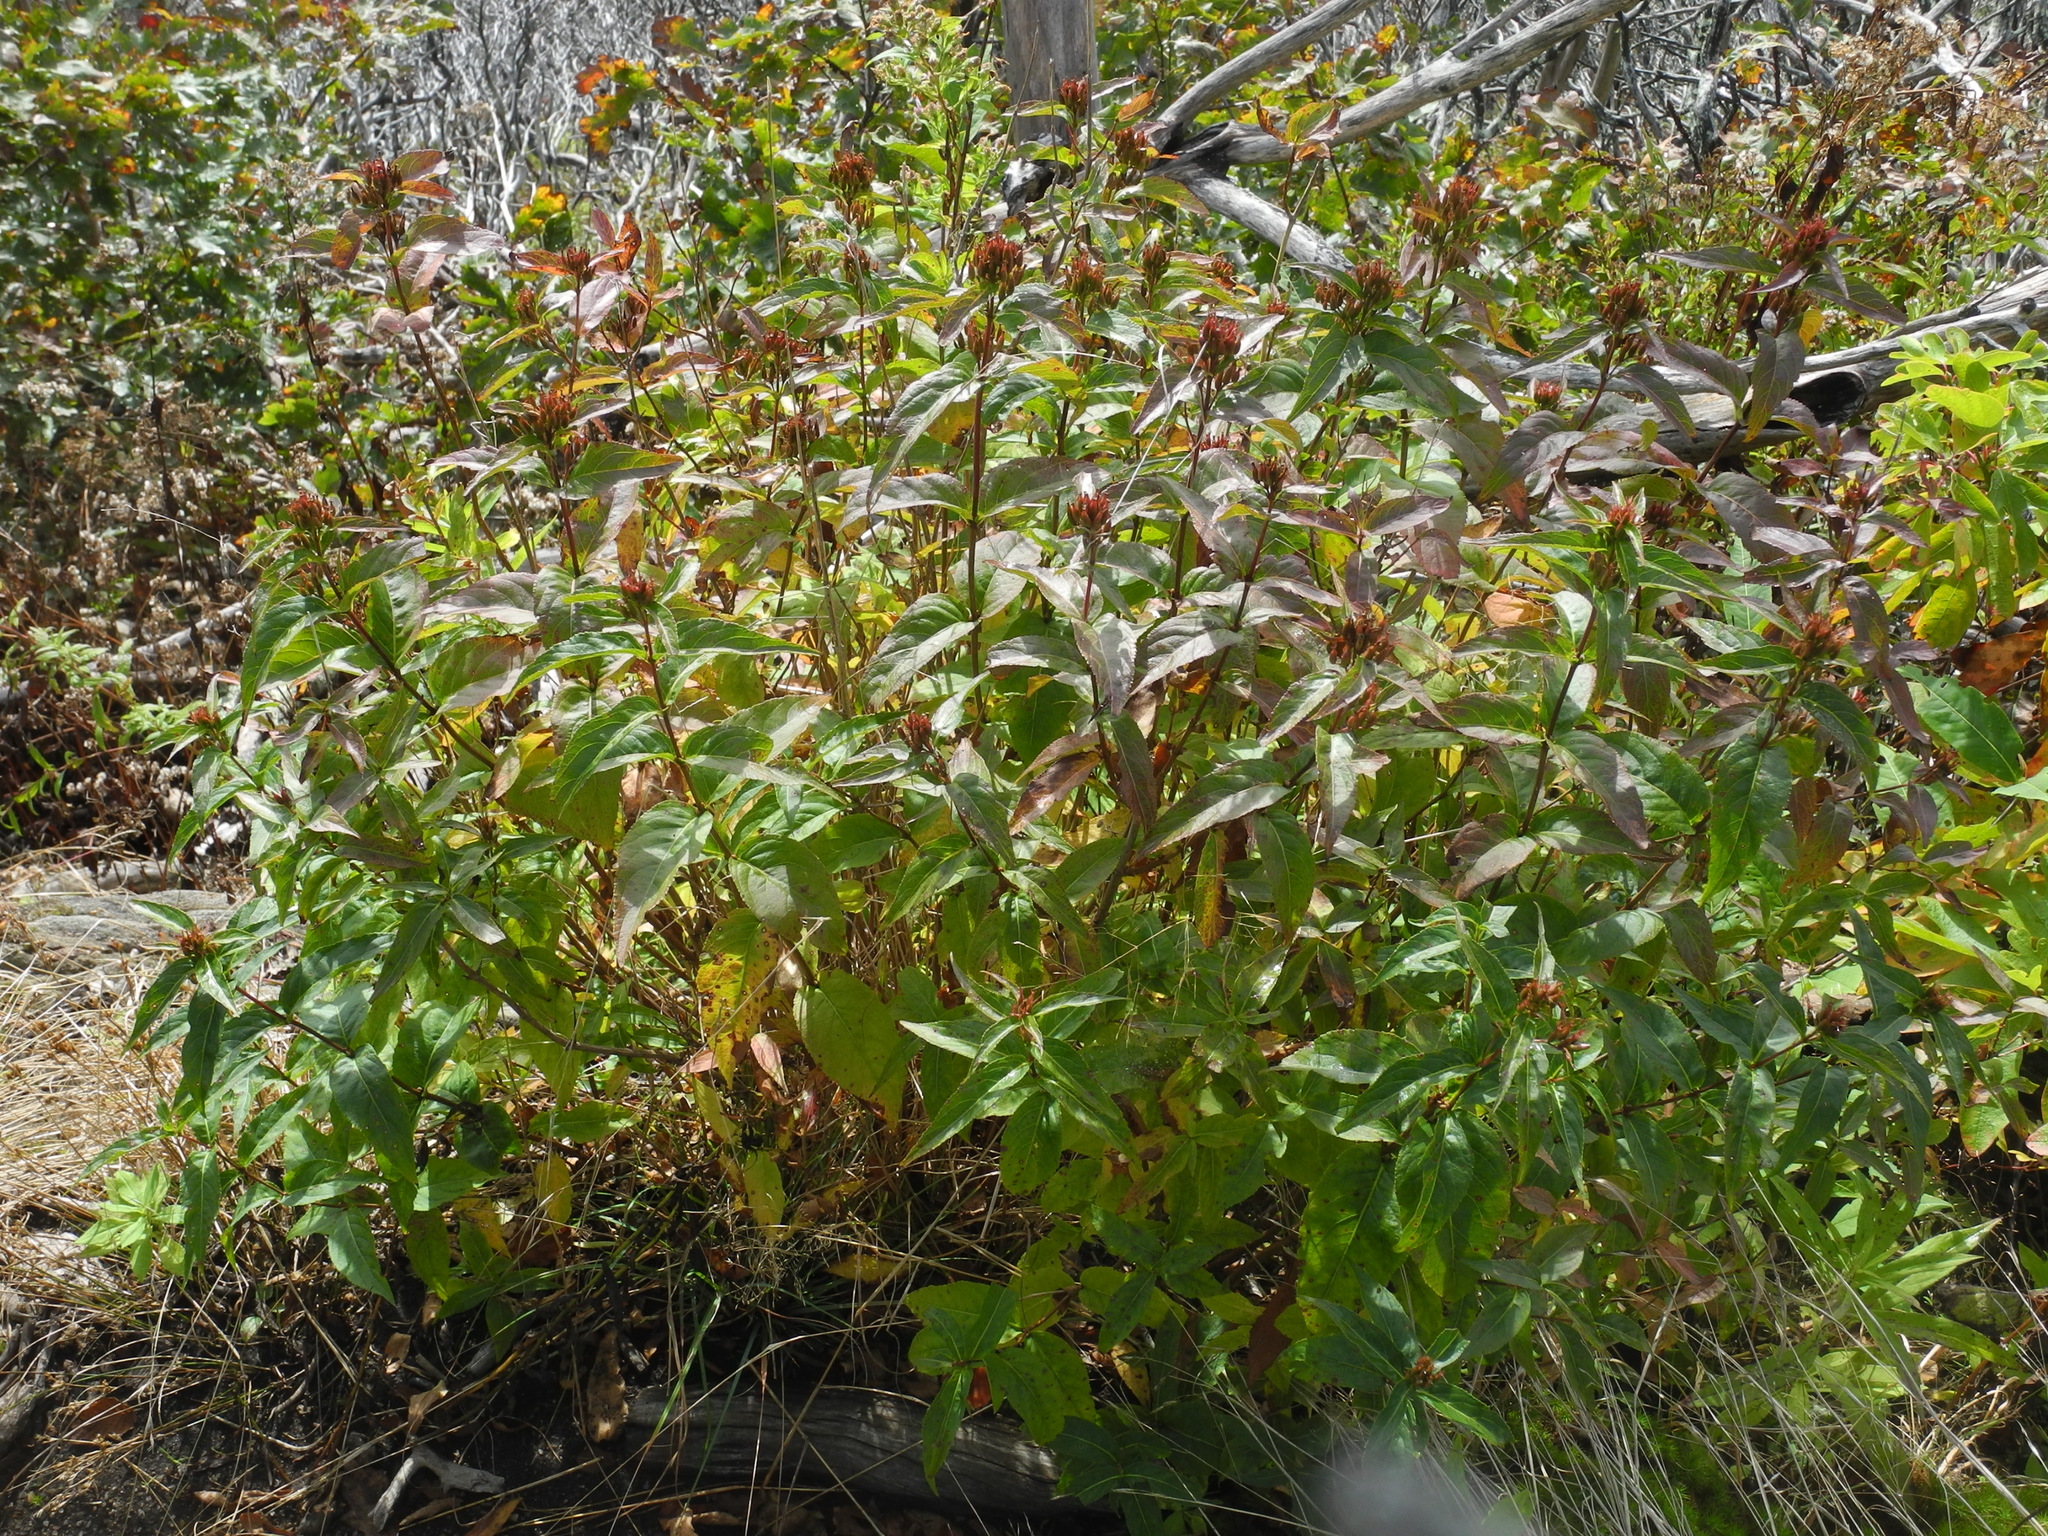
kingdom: Plantae
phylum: Tracheophyta
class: Magnoliopsida
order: Dipsacales
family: Caprifoliaceae
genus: Diervilla
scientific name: Diervilla sessilifolia
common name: Bush-honeysuckle
